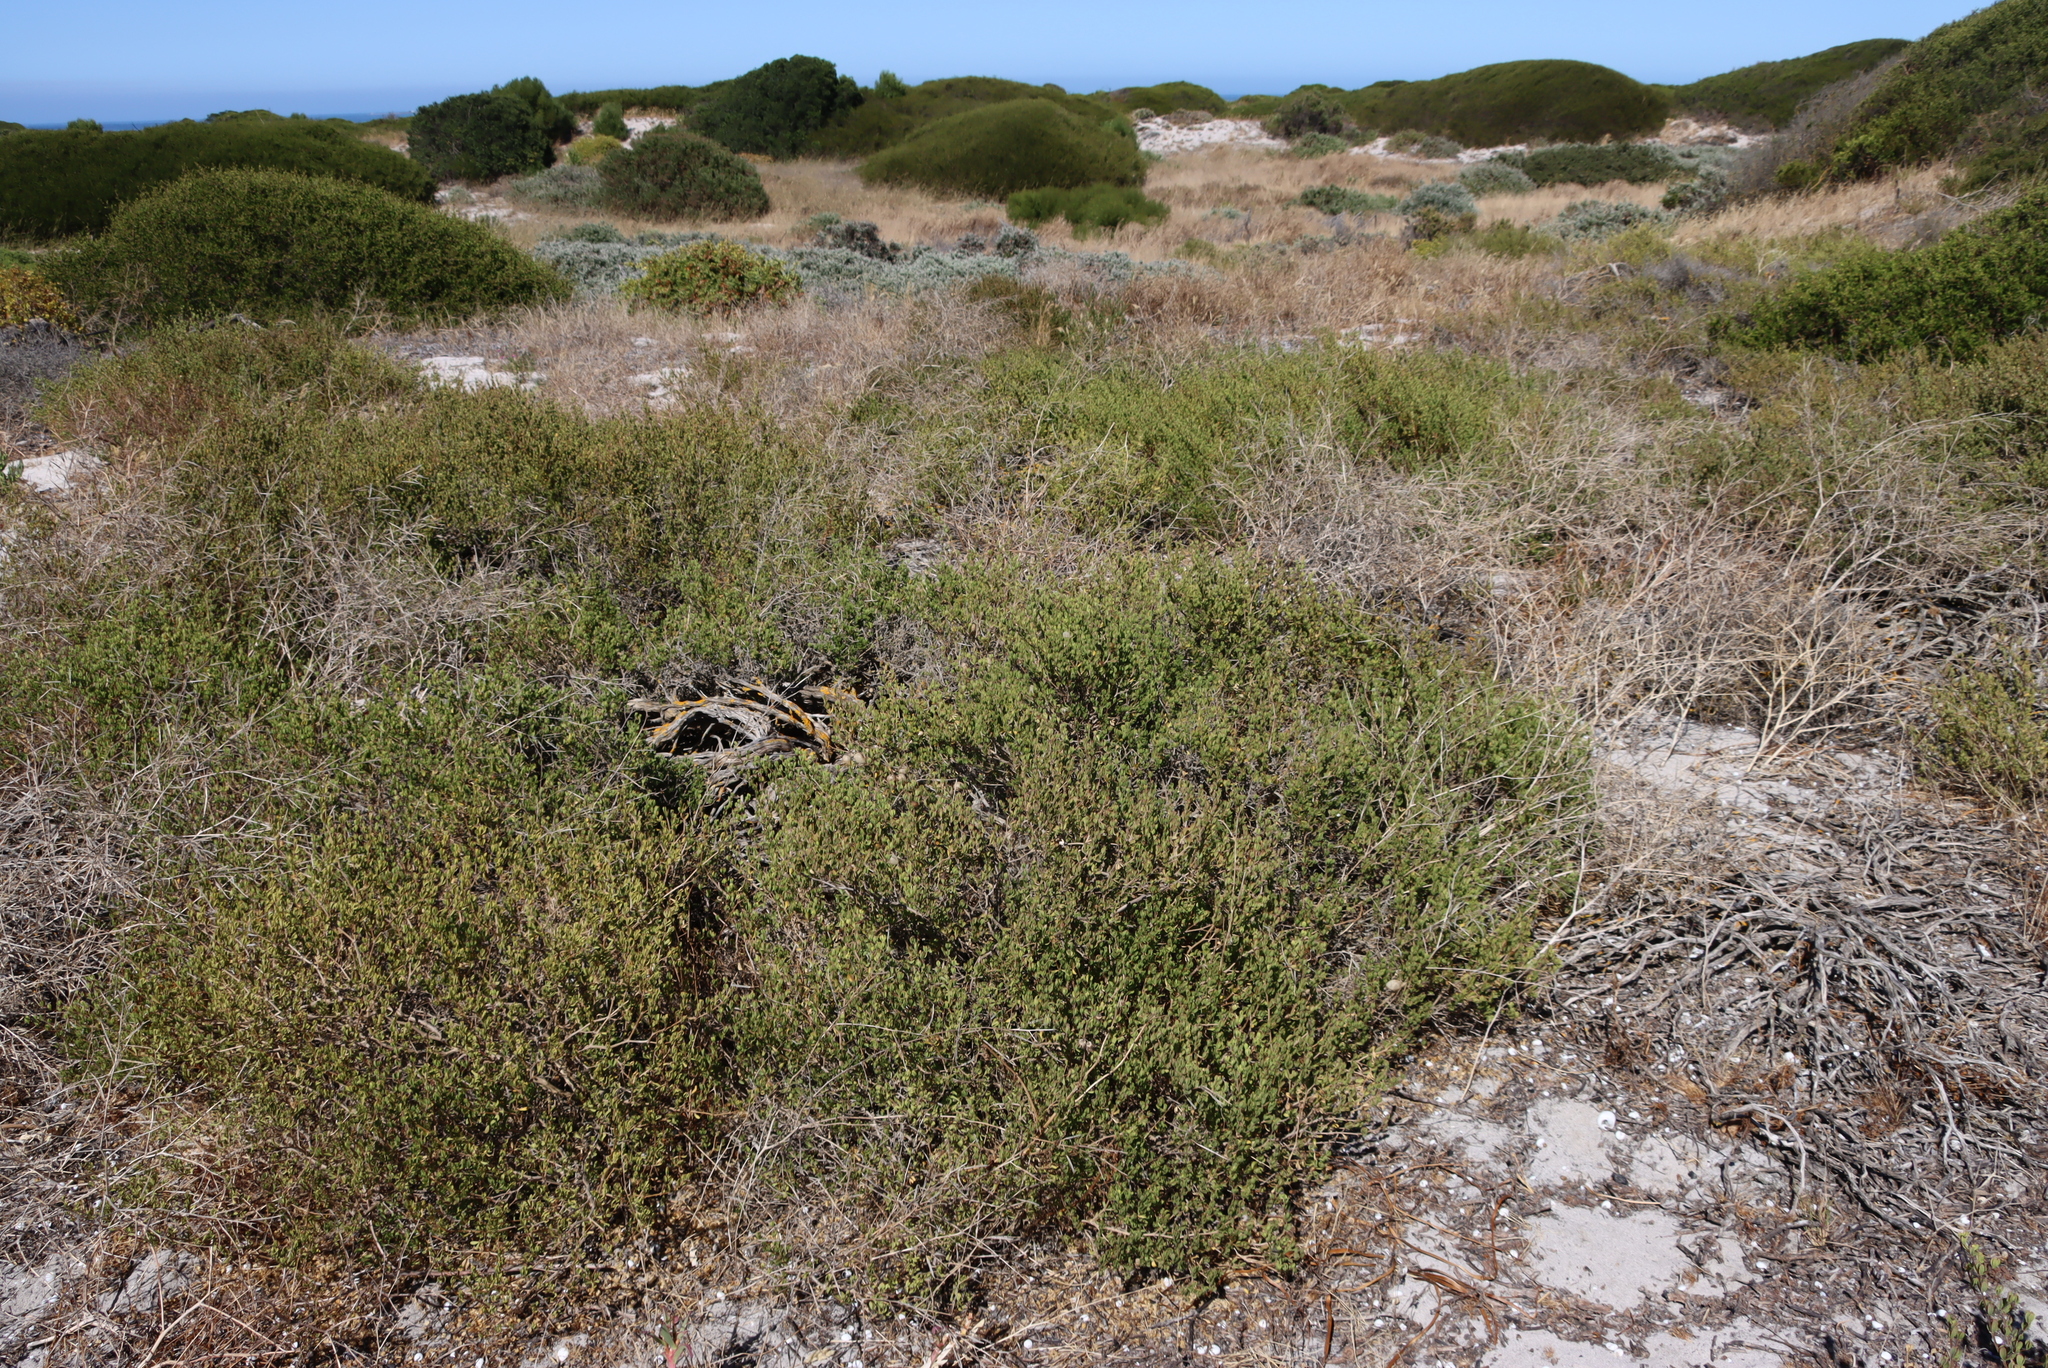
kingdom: Plantae
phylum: Tracheophyta
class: Magnoliopsida
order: Zygophyllales
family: Zygophyllaceae
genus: Roepera
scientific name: Roepera flexuosa
